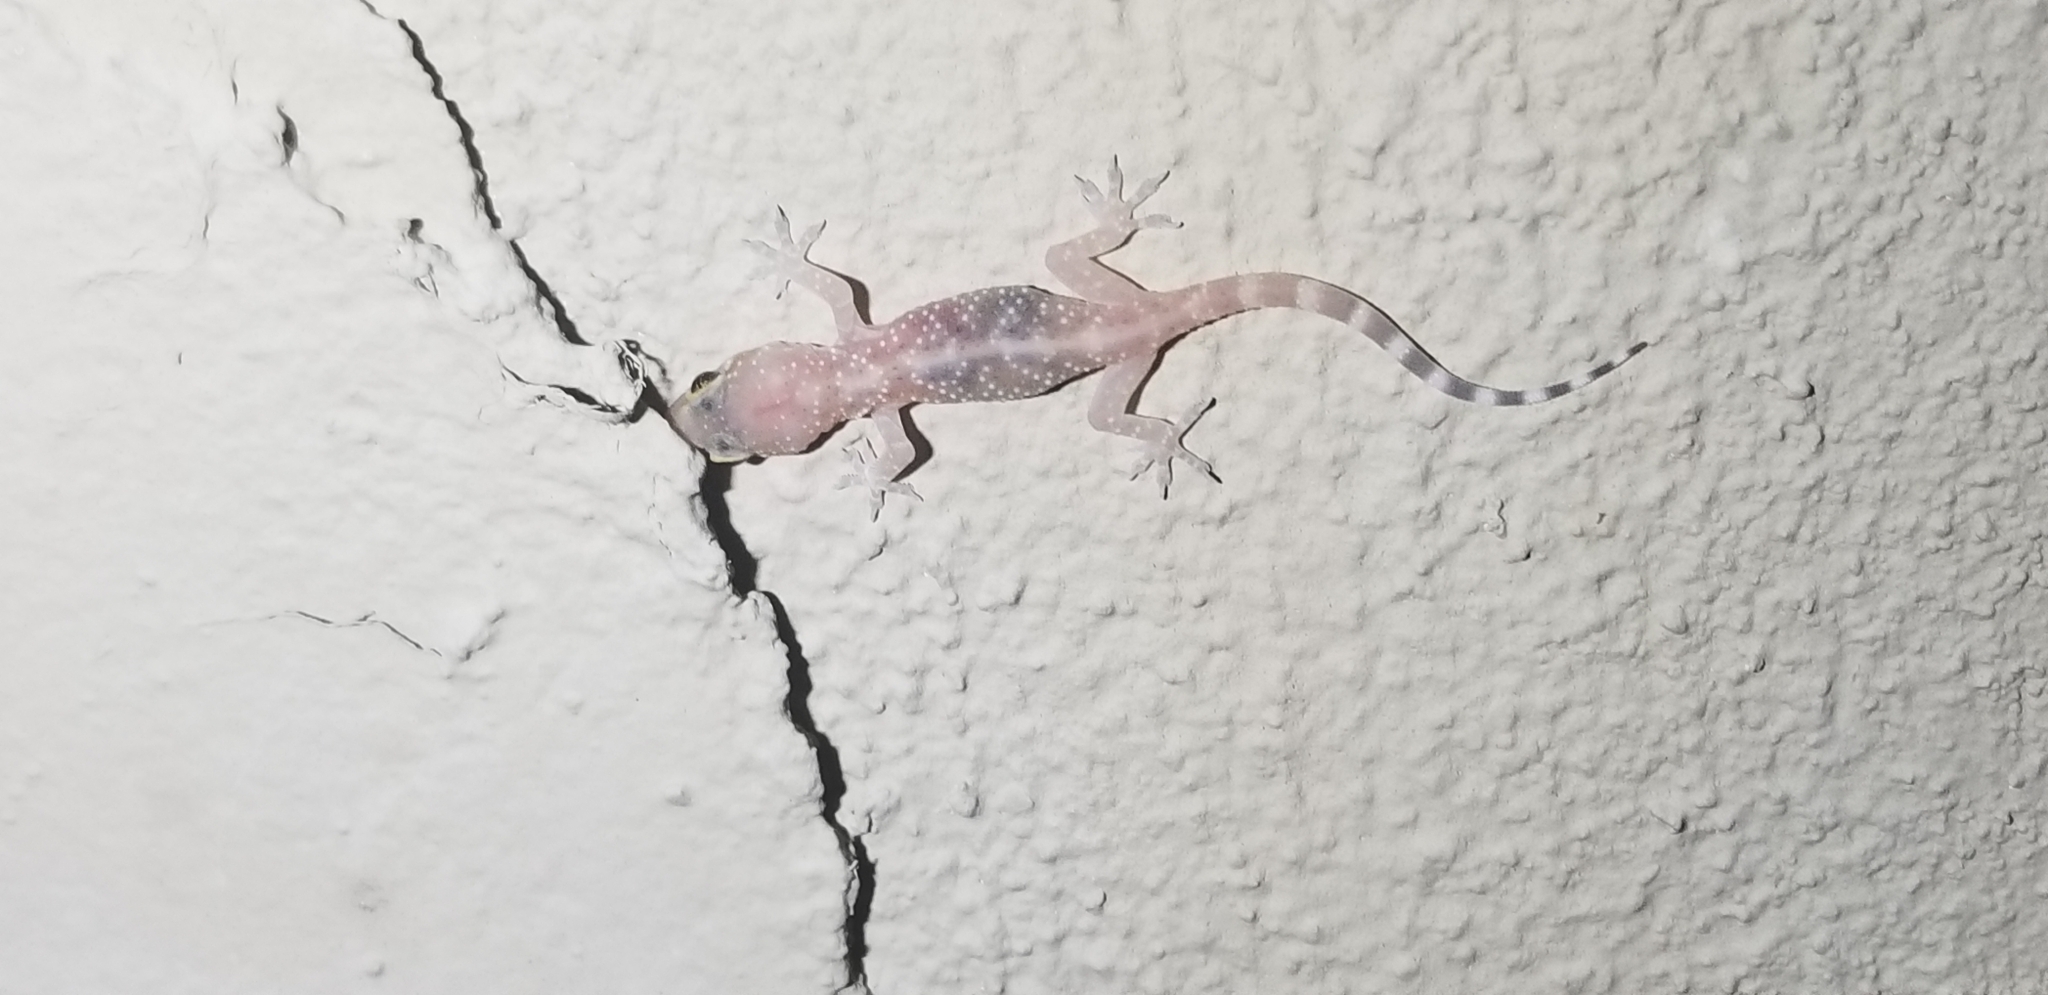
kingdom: Animalia
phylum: Chordata
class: Squamata
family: Gekkonidae
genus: Hemidactylus
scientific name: Hemidactylus turcicus
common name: Turkish gecko
